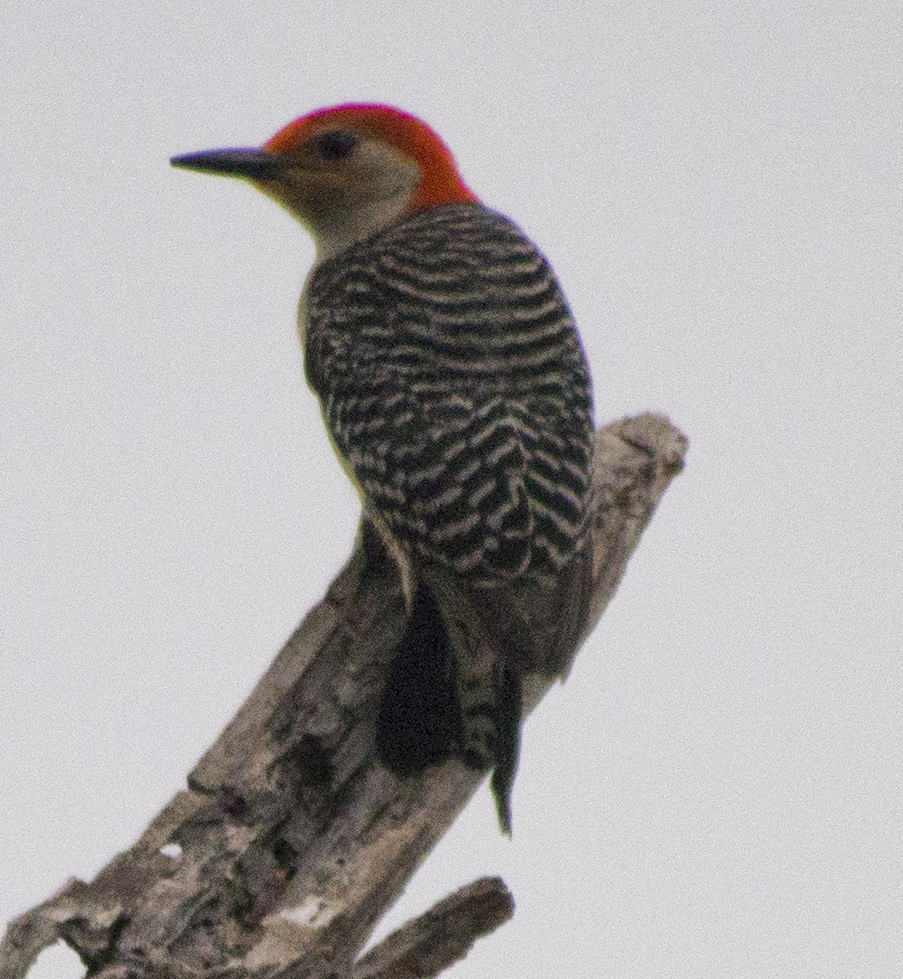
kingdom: Animalia
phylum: Chordata
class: Aves
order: Piciformes
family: Picidae
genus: Melanerpes
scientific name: Melanerpes carolinus
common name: Red-bellied woodpecker
